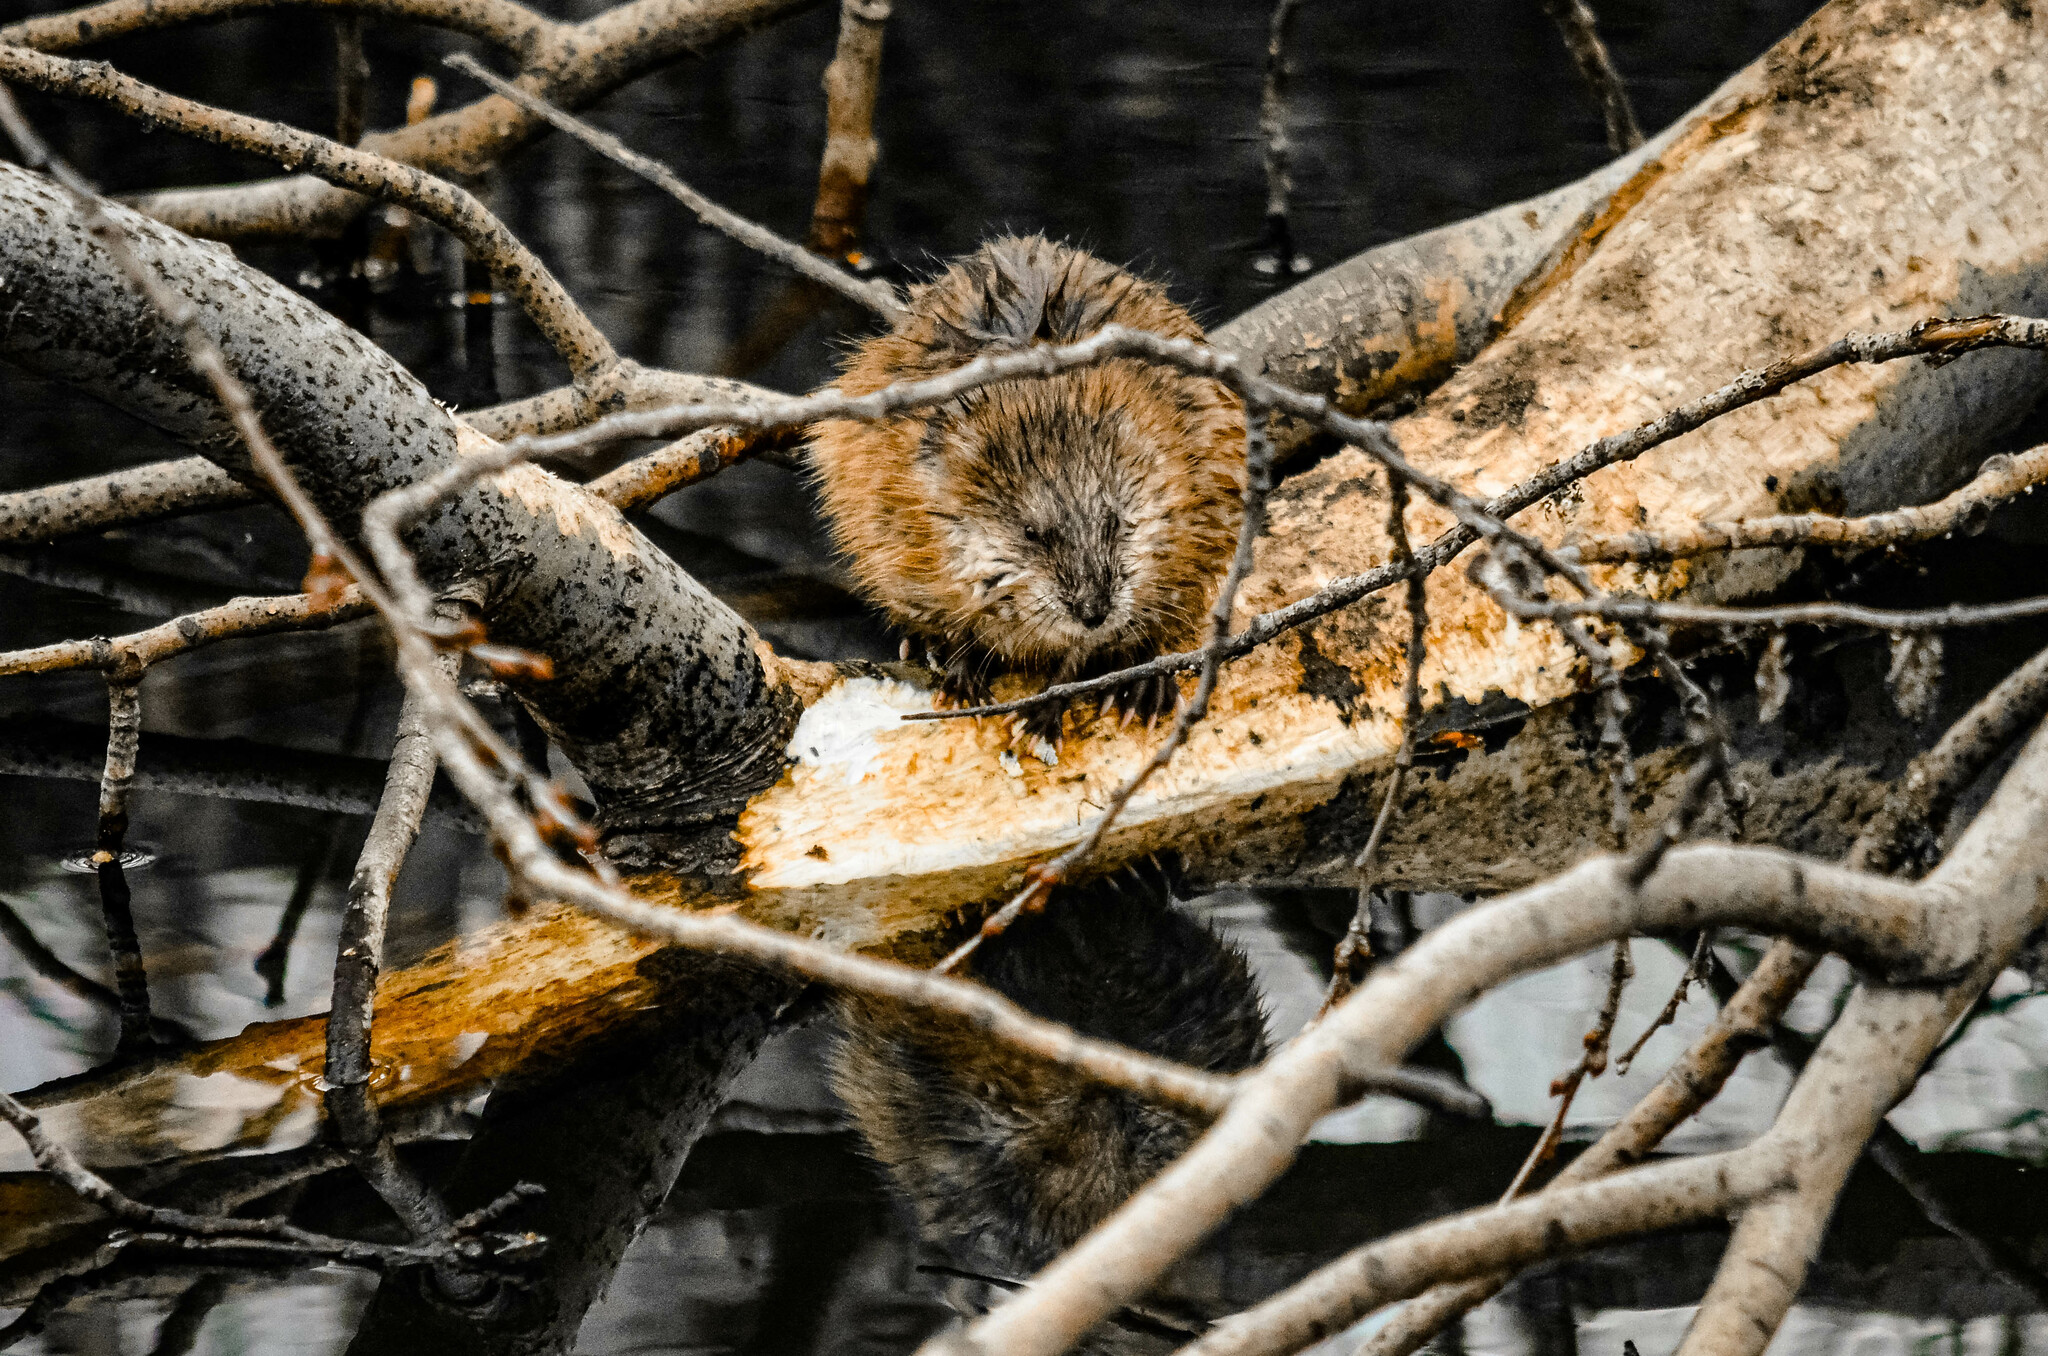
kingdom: Animalia
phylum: Chordata
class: Mammalia
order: Rodentia
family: Cricetidae
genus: Ondatra
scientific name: Ondatra zibethicus
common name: Muskrat
